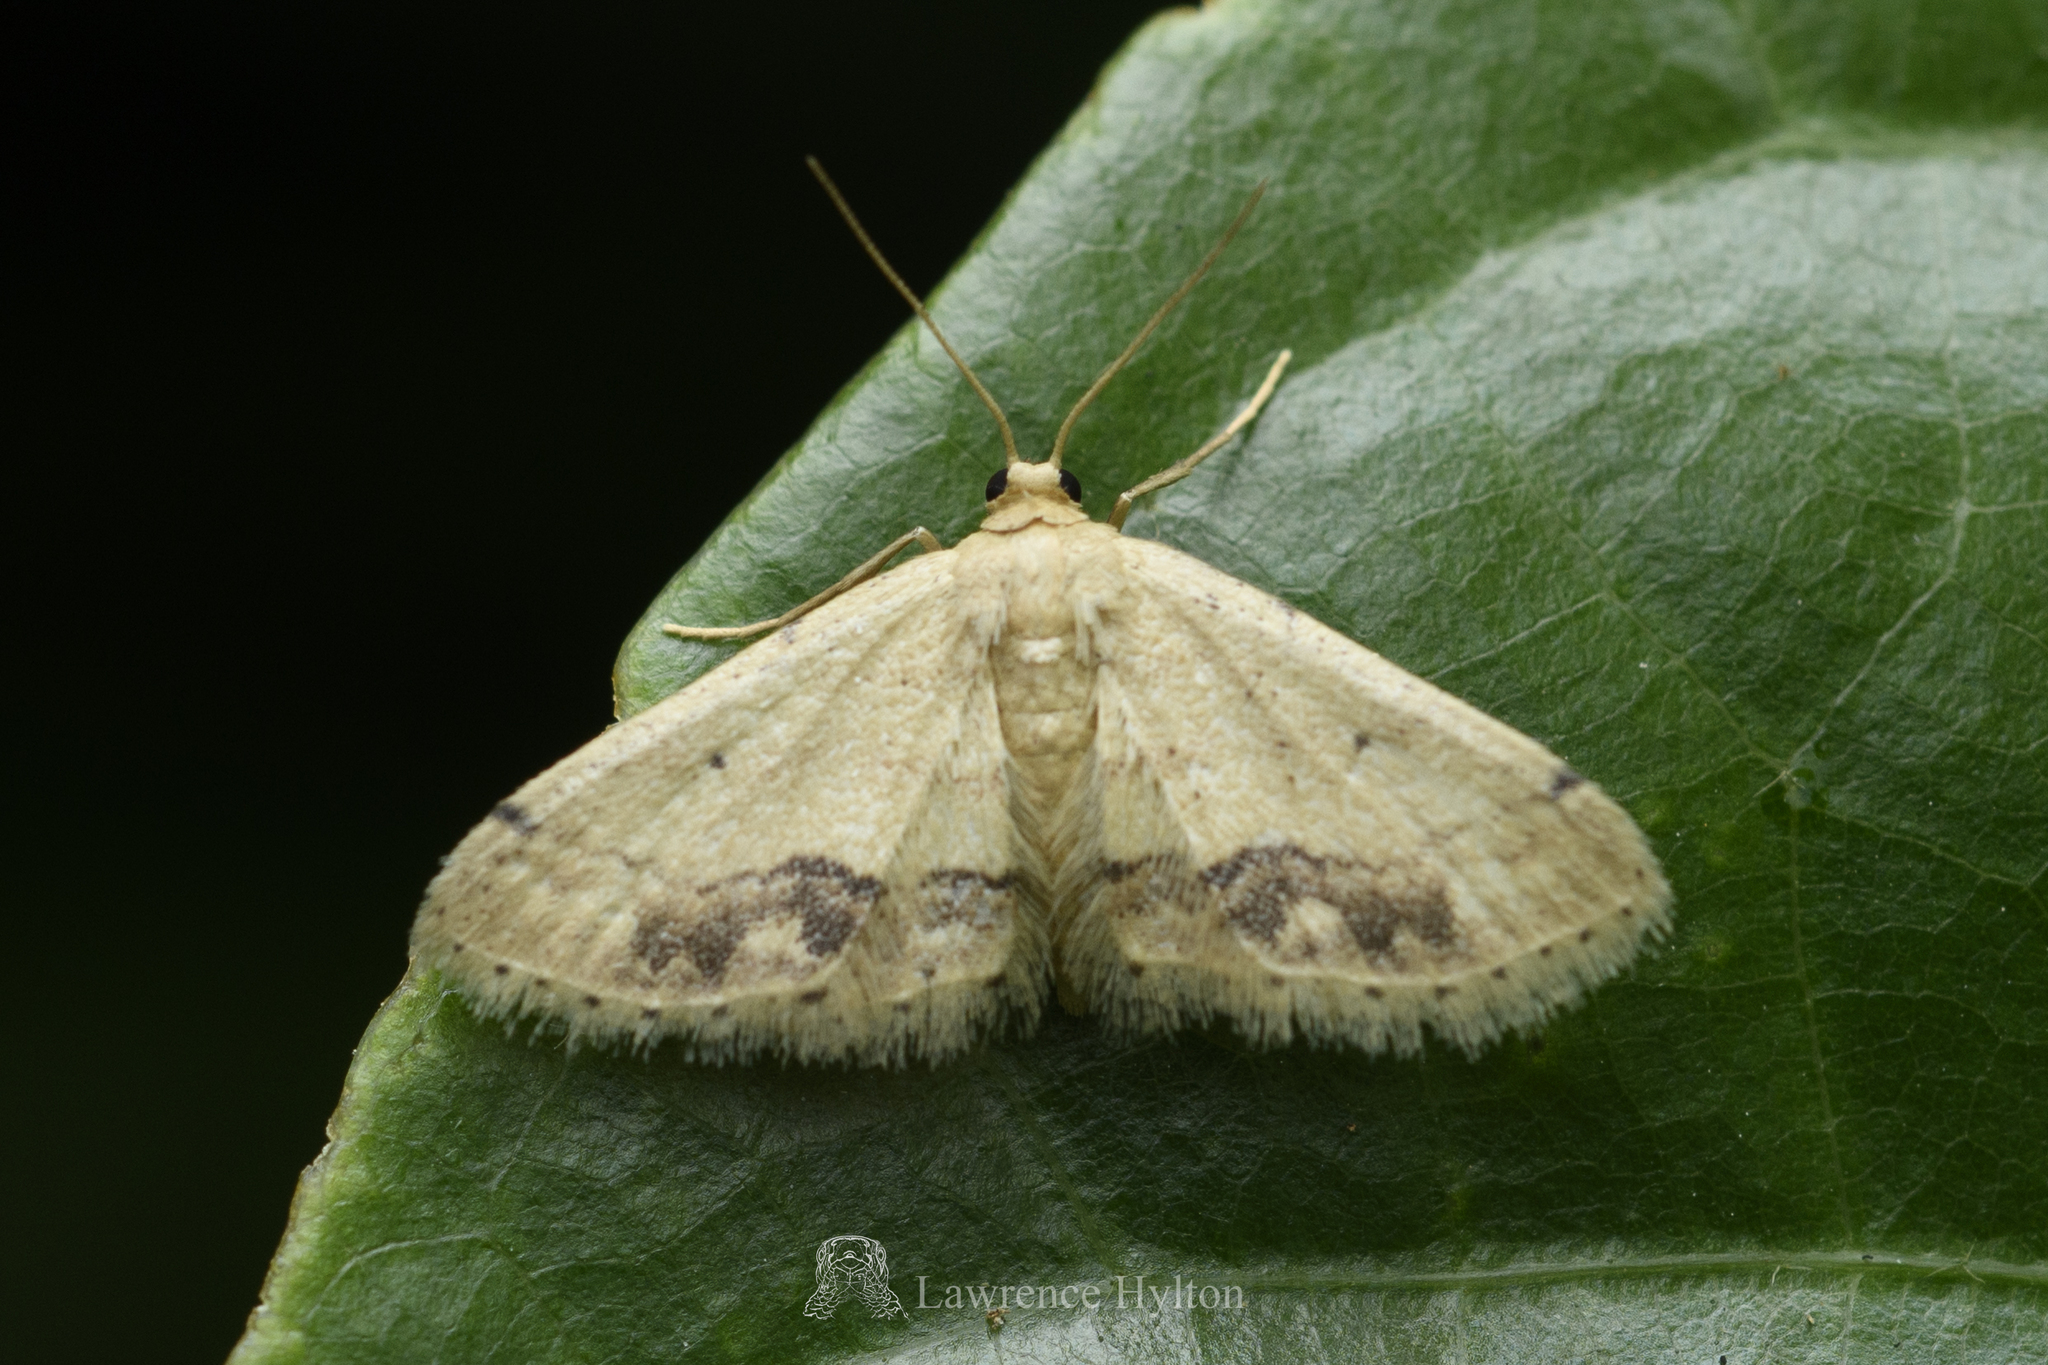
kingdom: Animalia
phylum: Arthropoda
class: Insecta
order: Lepidoptera
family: Geometridae
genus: Idaea
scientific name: Idaea chotaria
